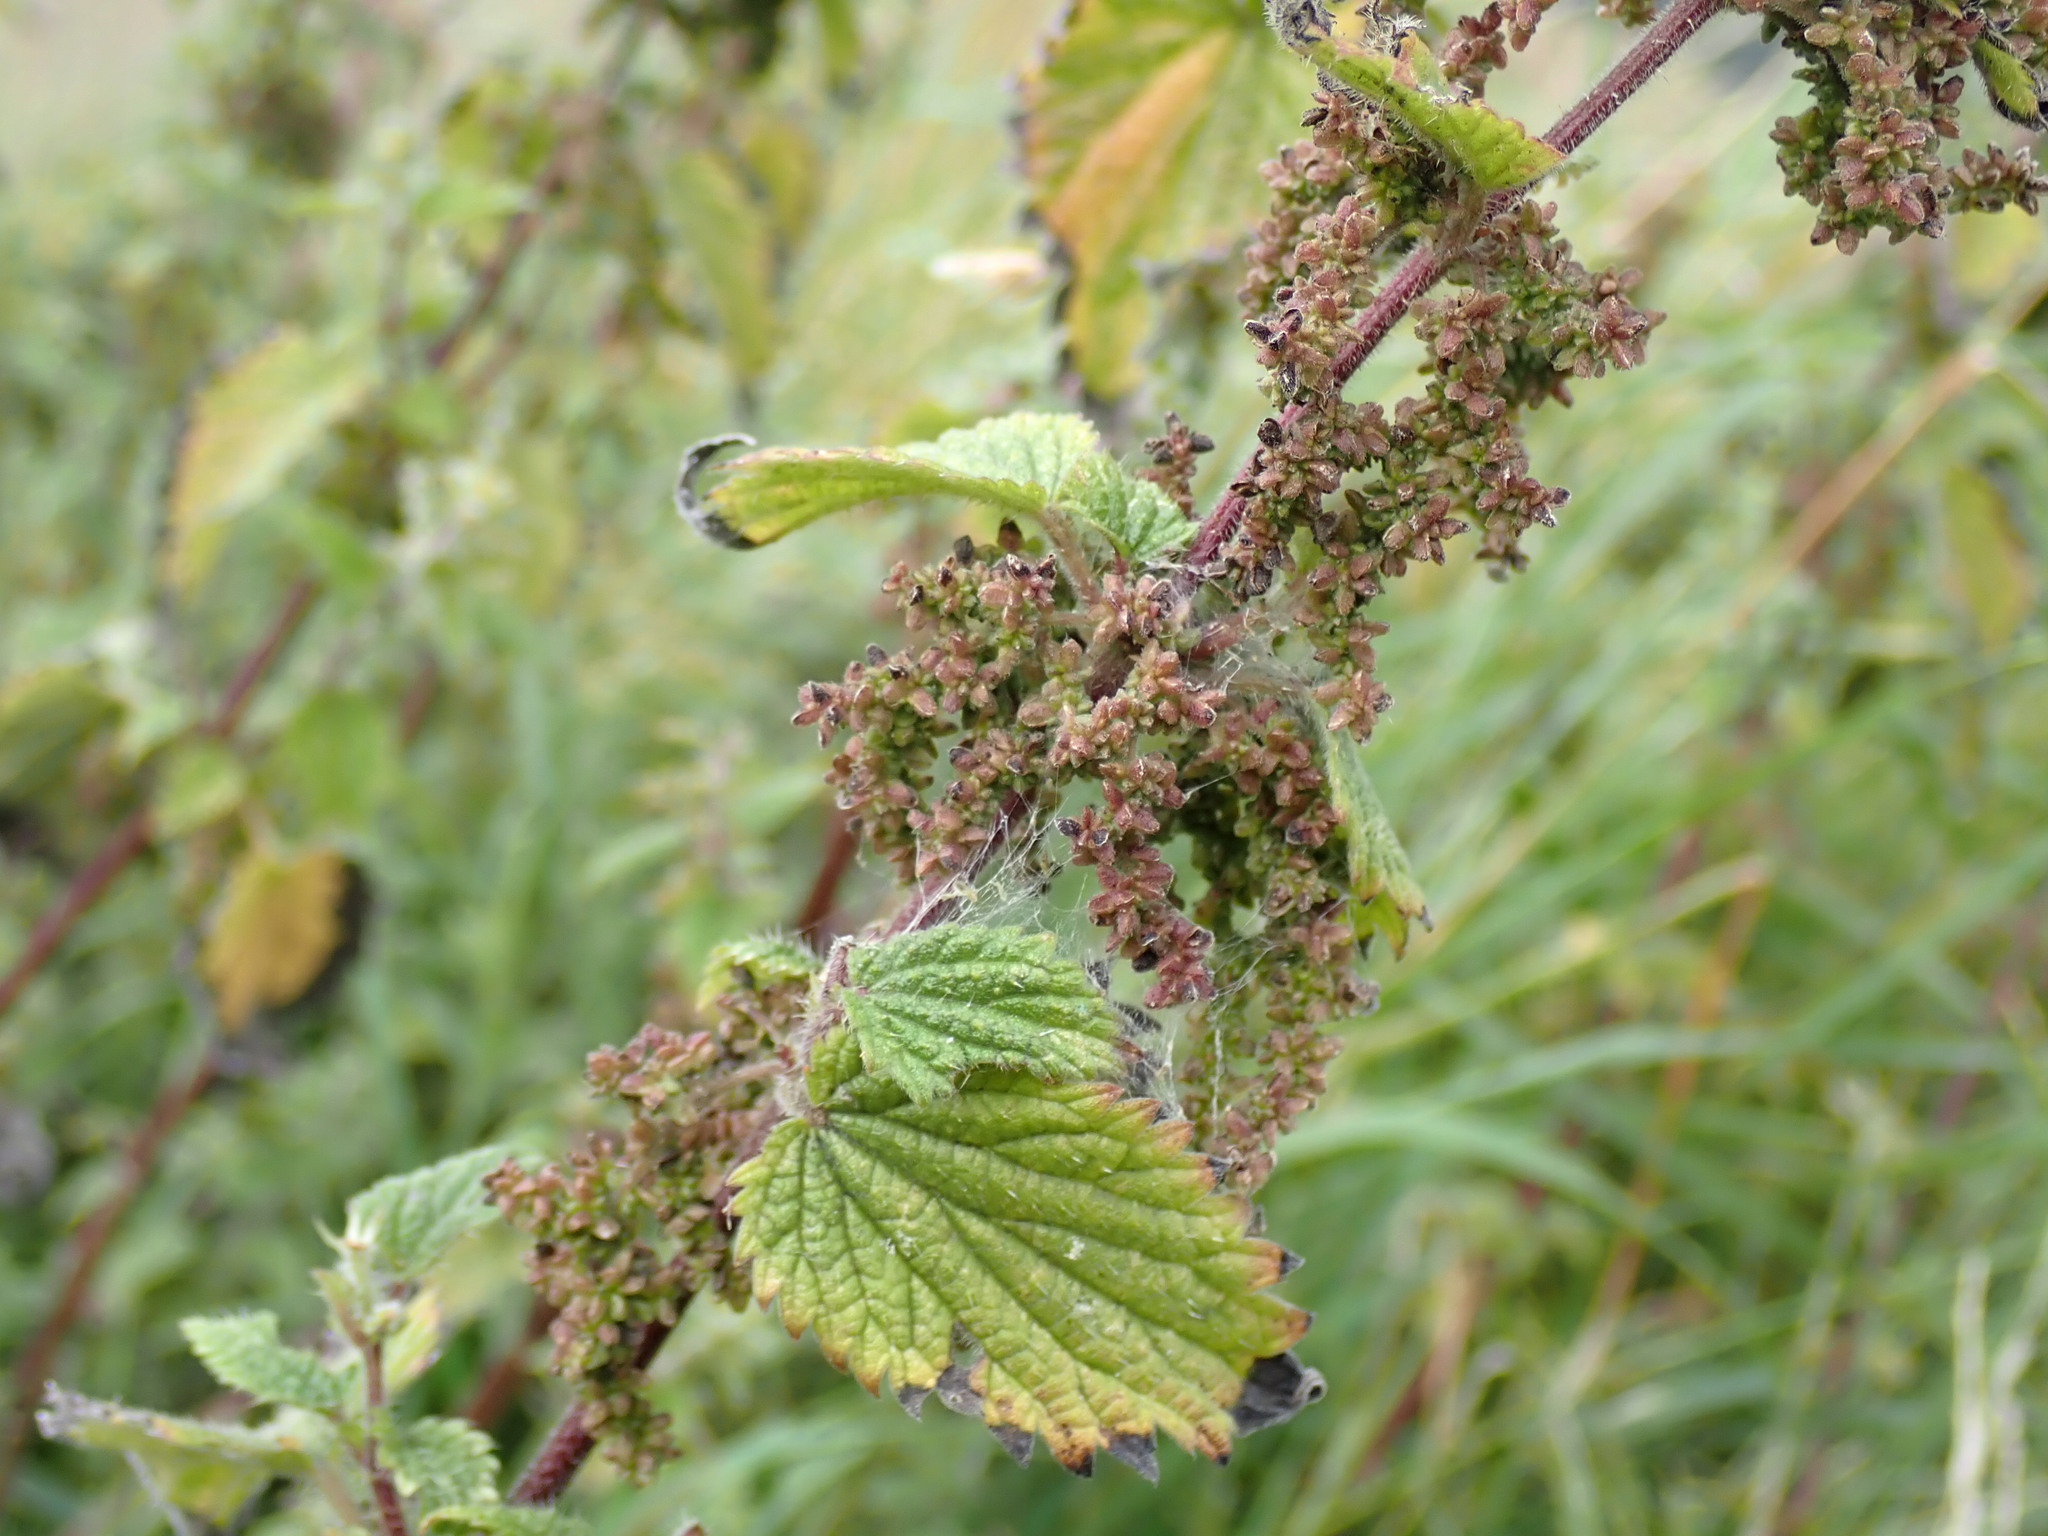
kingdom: Plantae
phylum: Tracheophyta
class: Magnoliopsida
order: Rosales
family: Urticaceae
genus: Urtica
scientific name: Urtica dioica
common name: Common nettle
